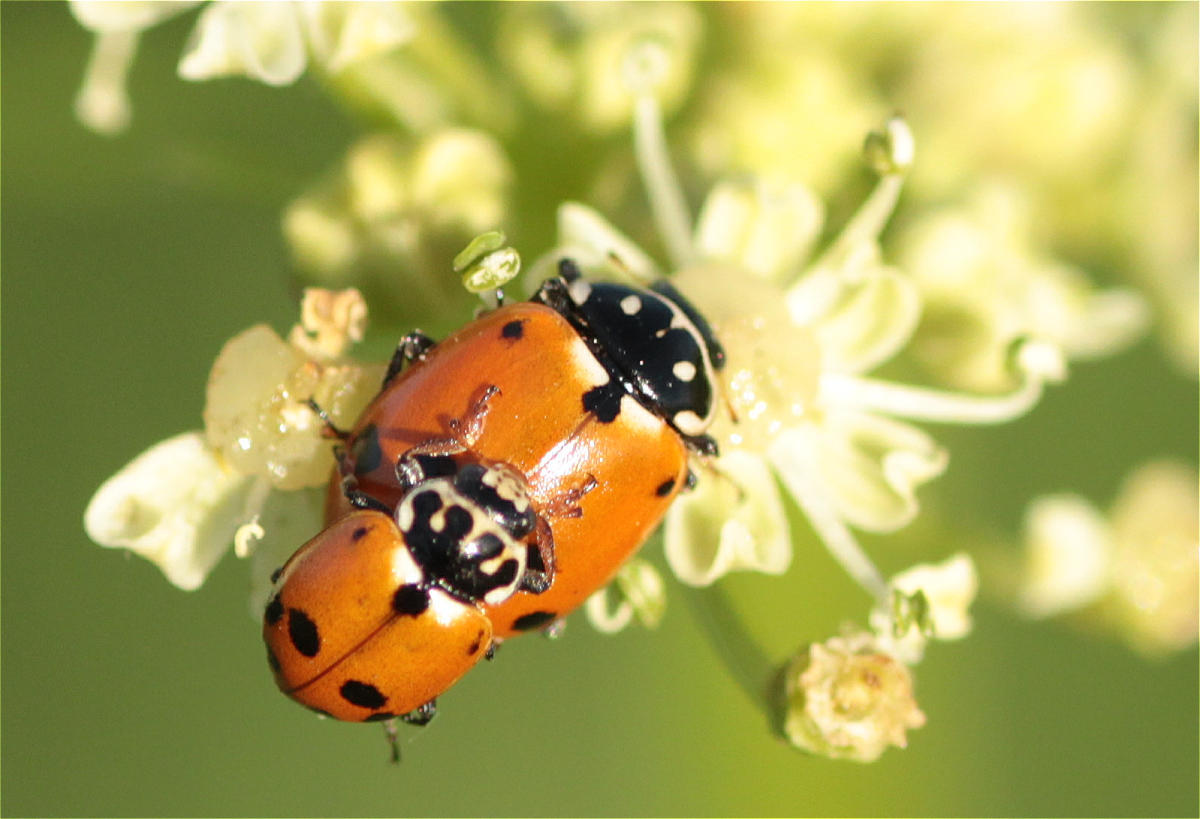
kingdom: Animalia
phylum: Arthropoda
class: Insecta
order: Coleoptera
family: Coccinellidae
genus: Hippodamia
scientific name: Hippodamia variegata
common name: Ladybird beetle
